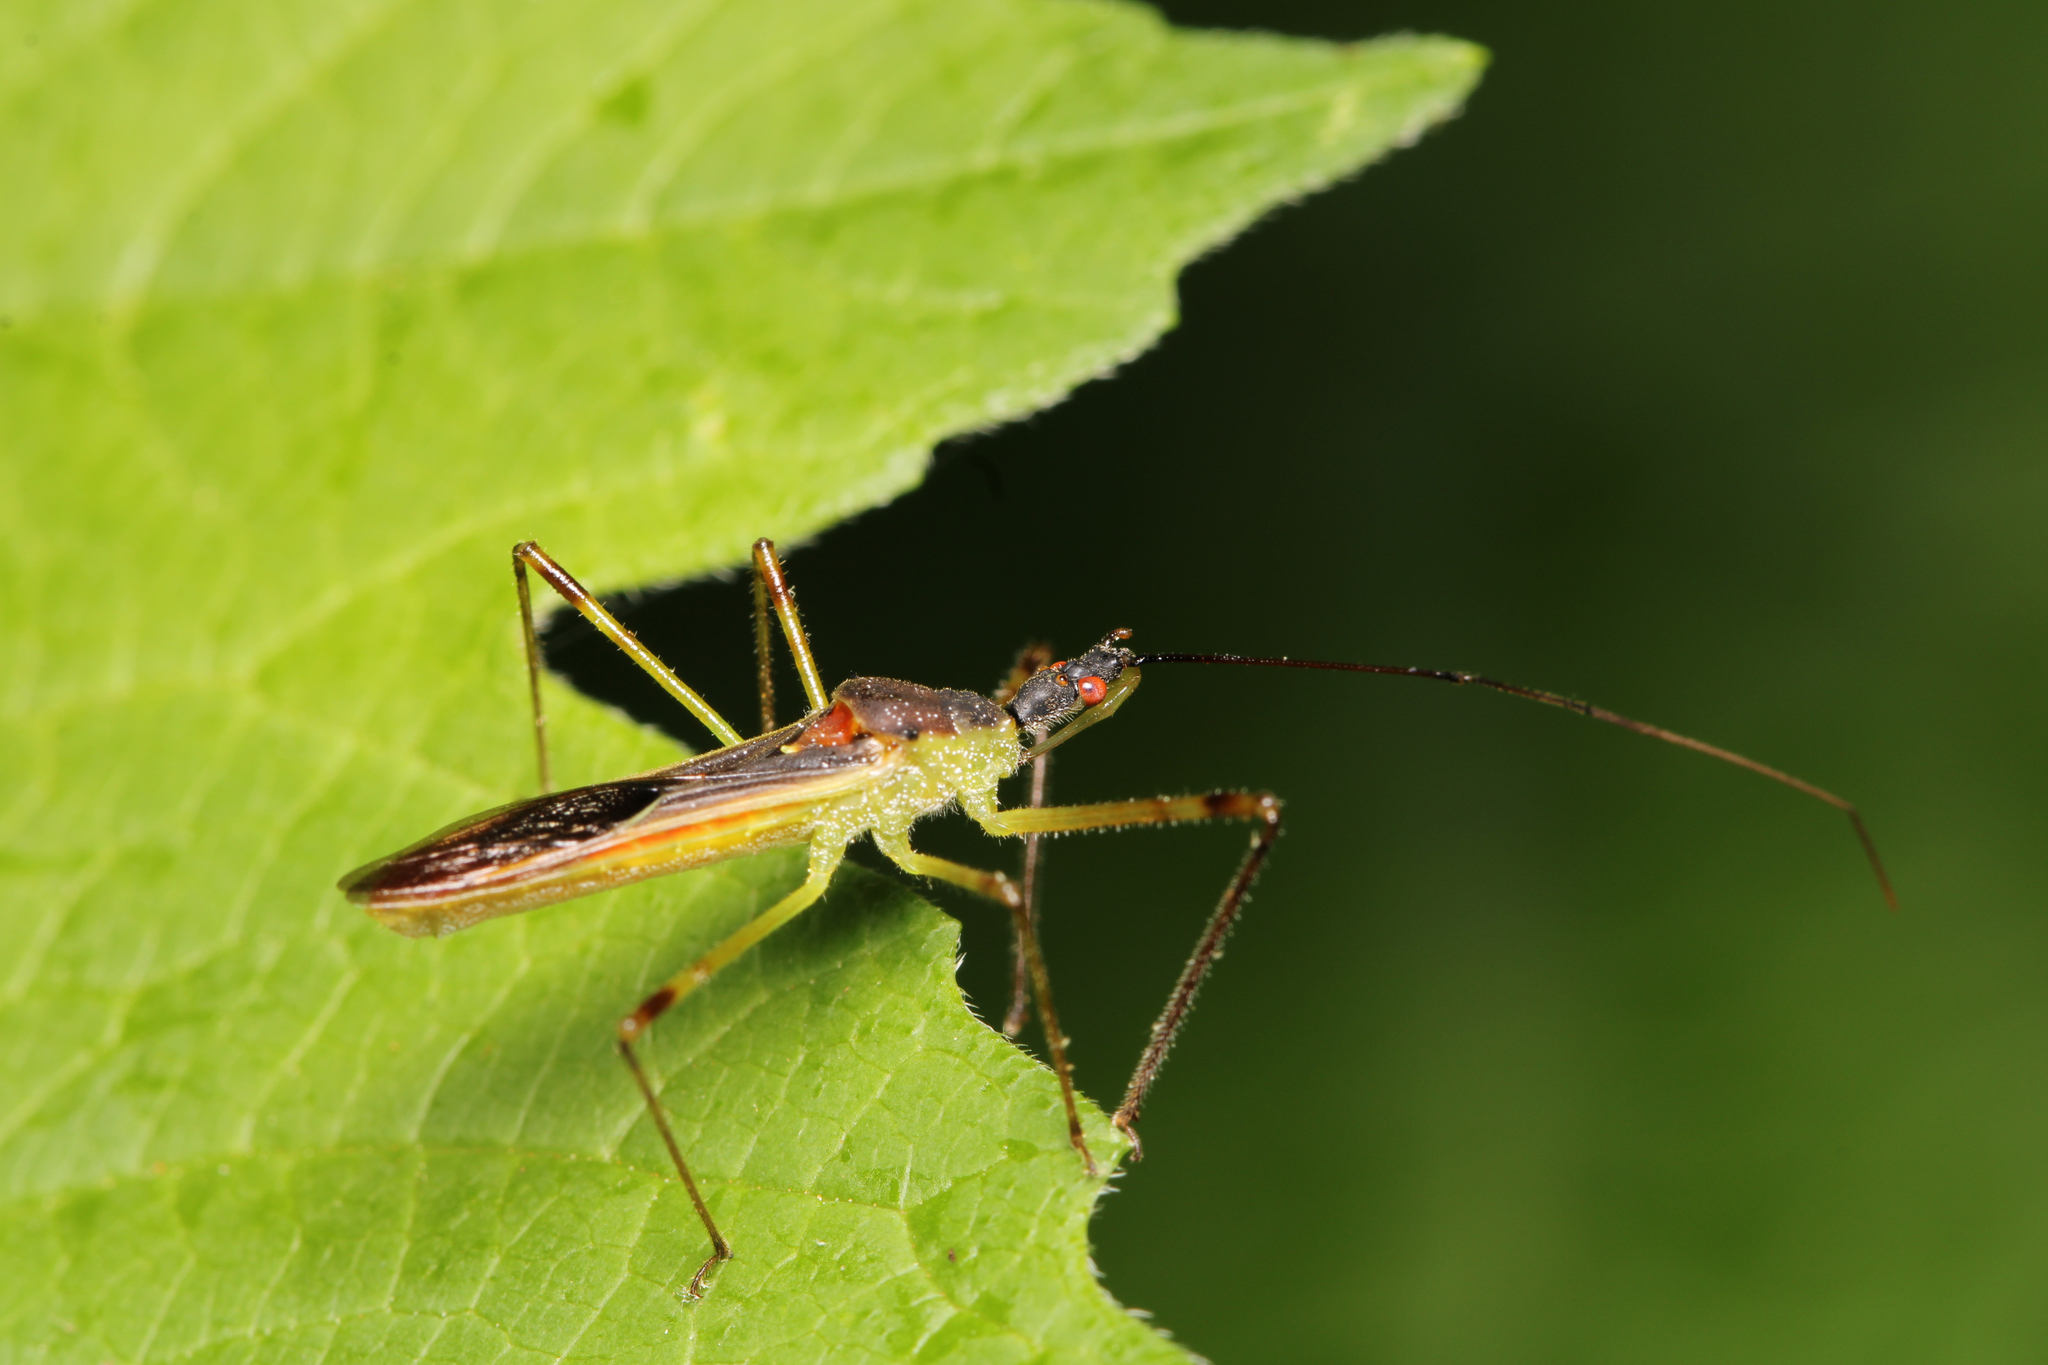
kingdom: Animalia
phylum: Arthropoda
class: Insecta
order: Hemiptera
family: Reduviidae
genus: Zelus
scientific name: Zelus luridus
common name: Pale green assassin bug
